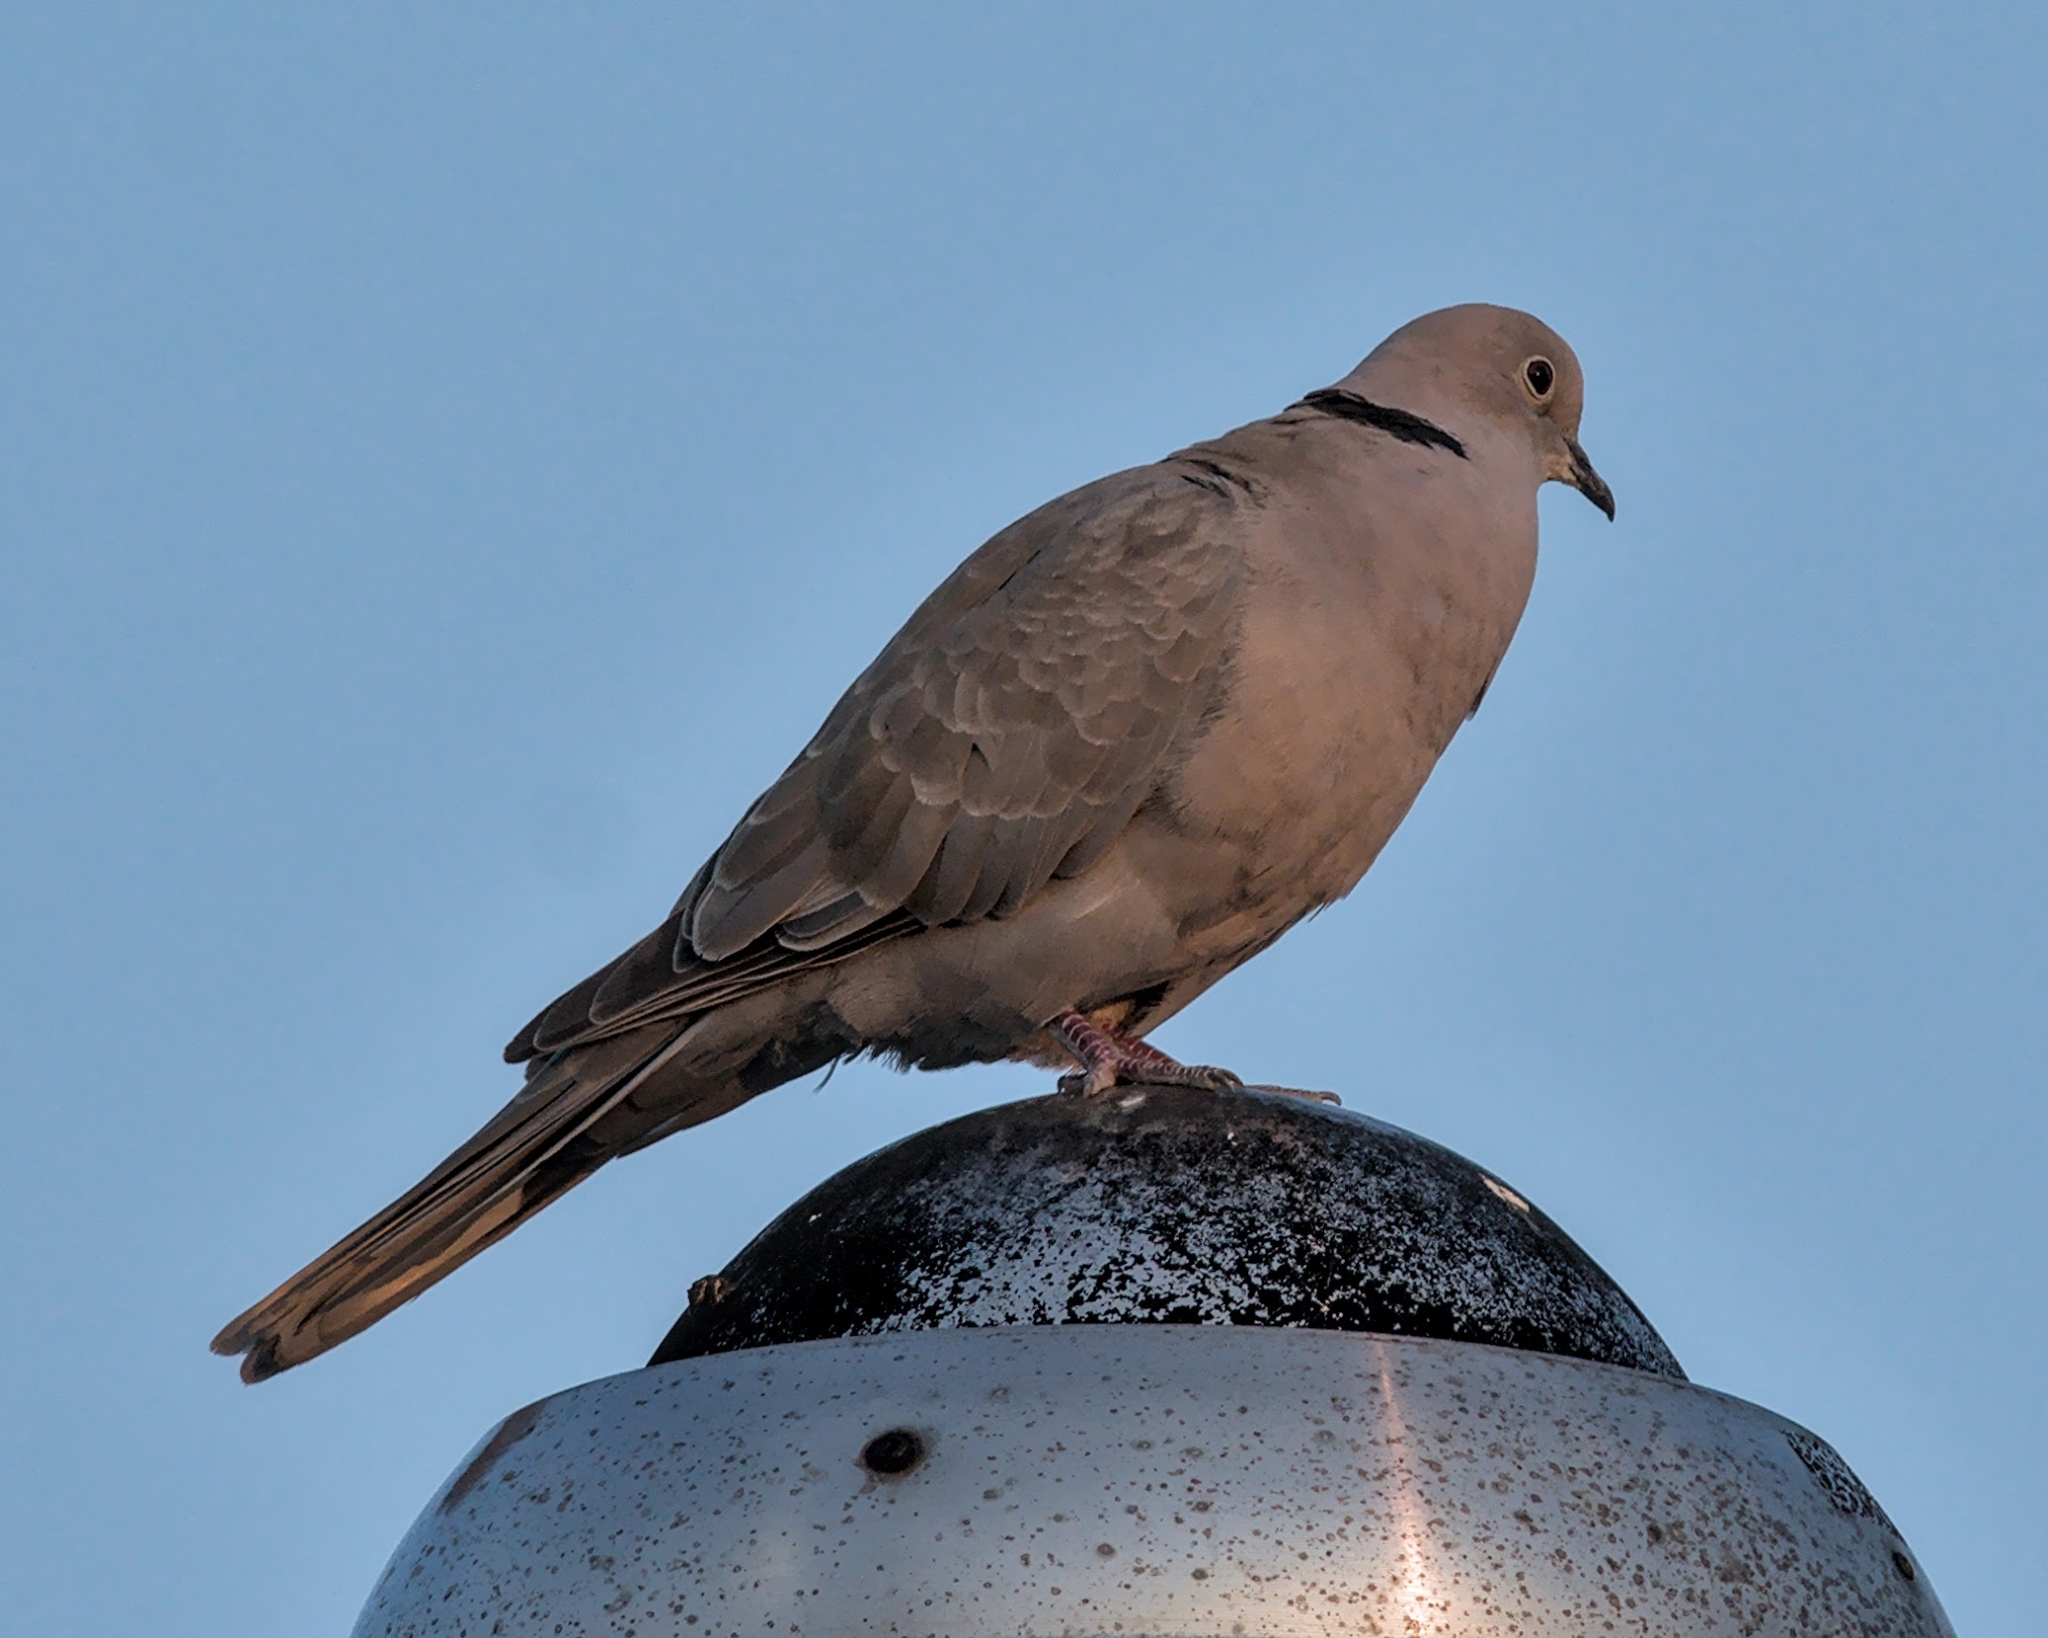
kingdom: Animalia
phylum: Chordata
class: Aves
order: Columbiformes
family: Columbidae
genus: Streptopelia
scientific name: Streptopelia decaocto
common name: Eurasian collared dove
